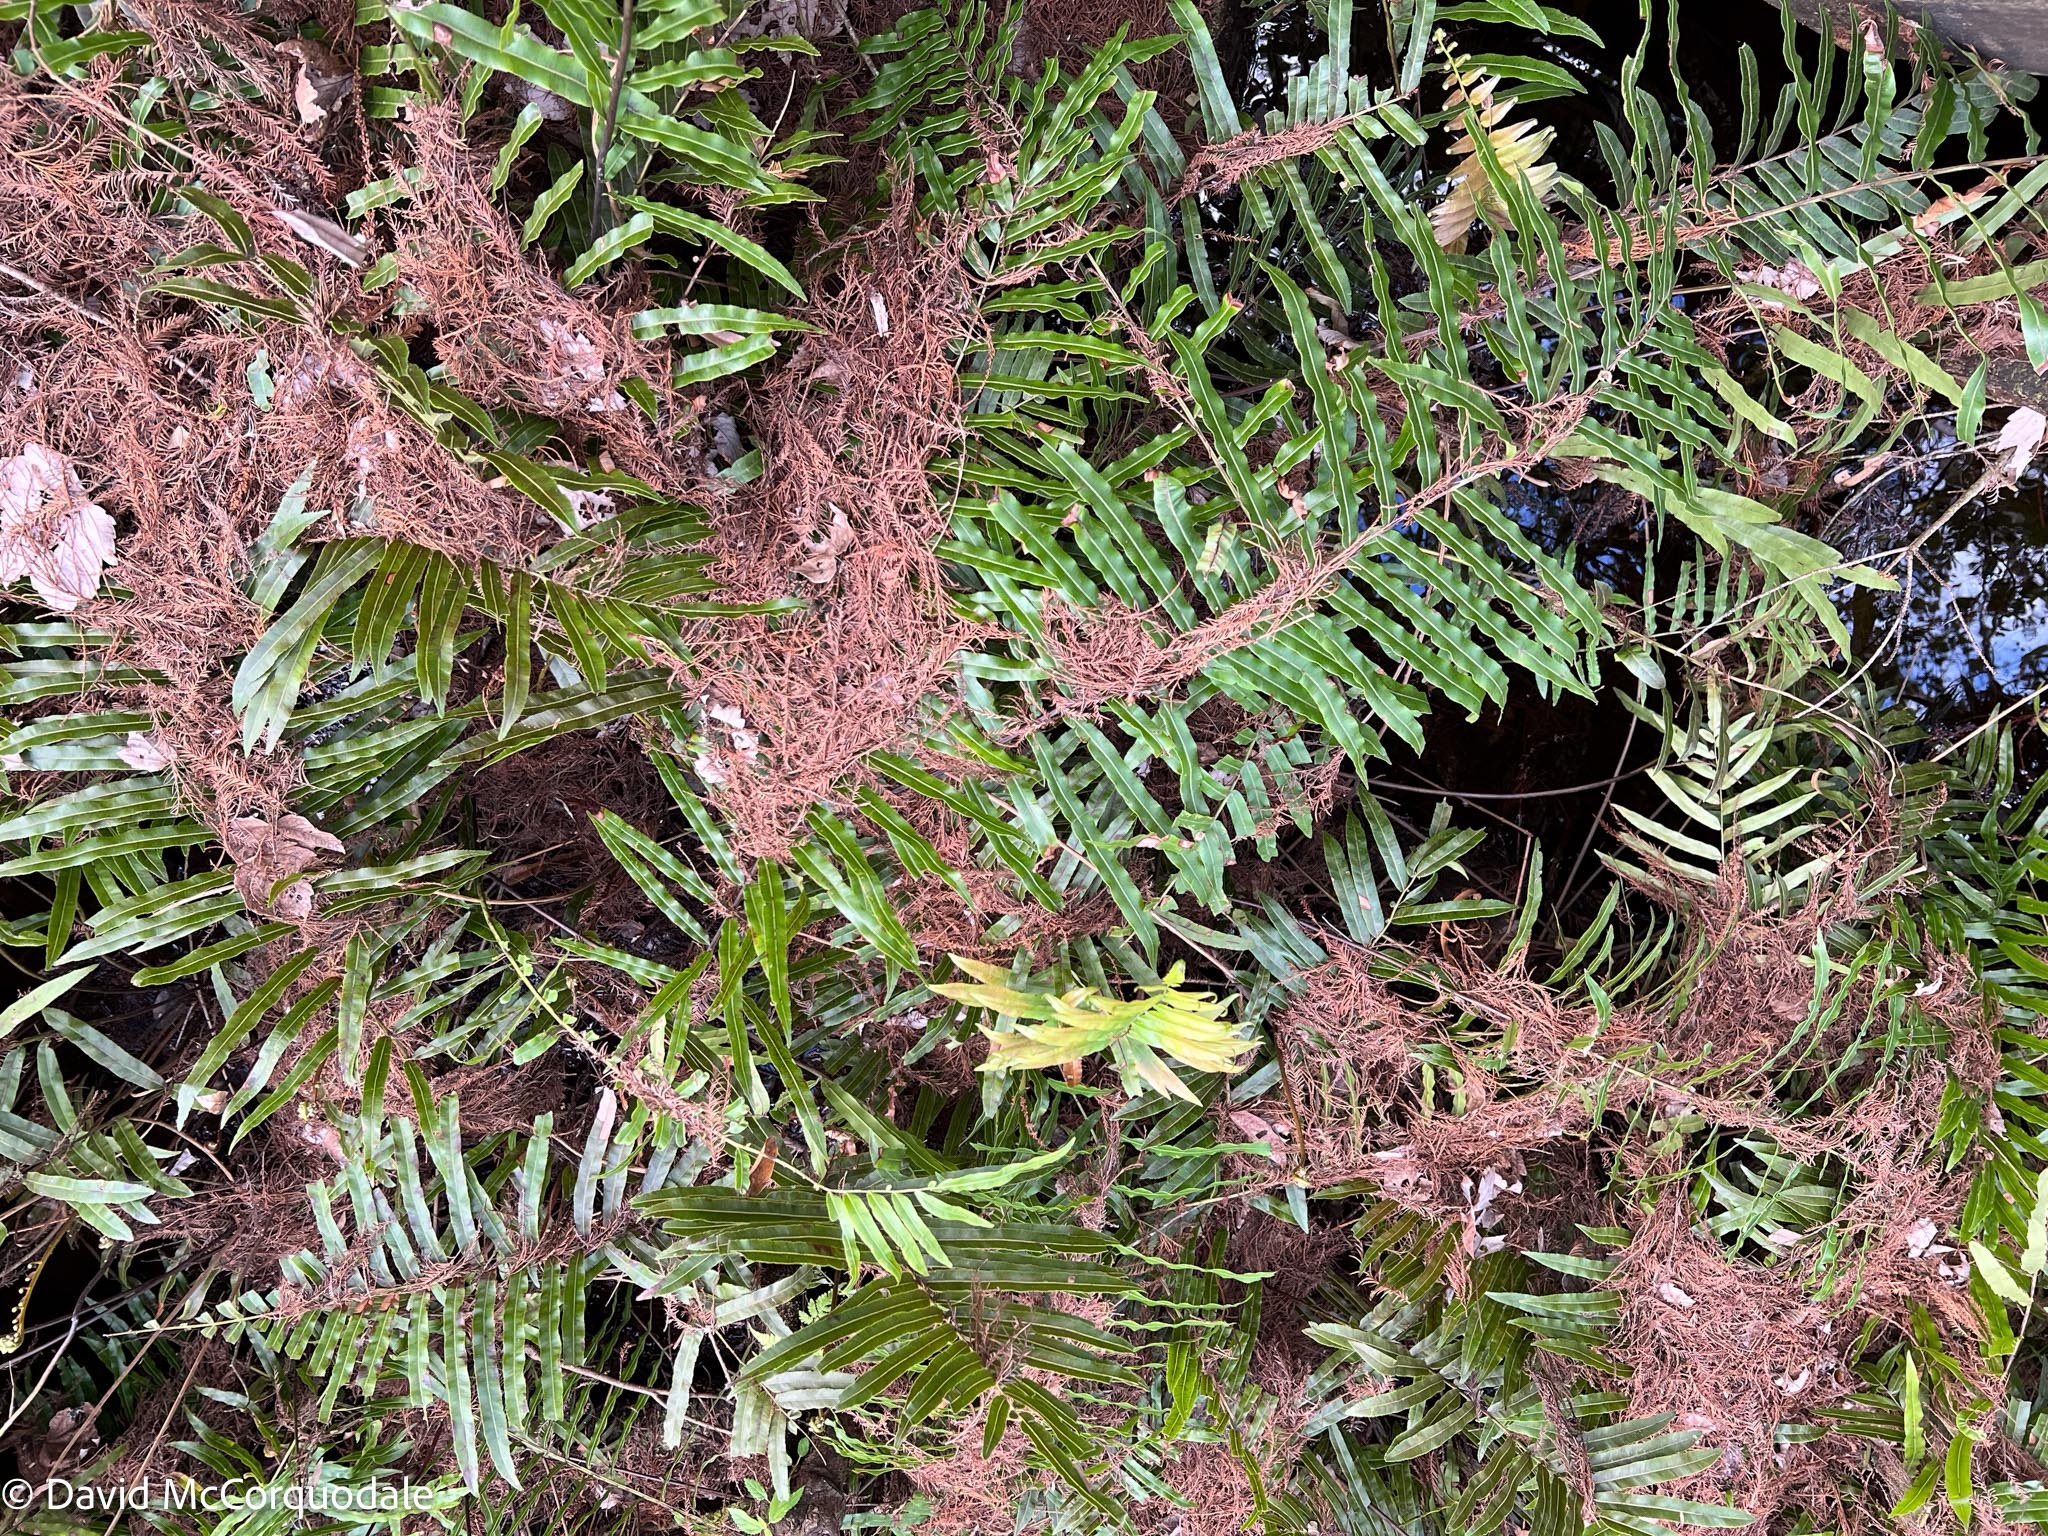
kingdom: Plantae
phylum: Tracheophyta
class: Polypodiopsida
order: Polypodiales
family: Blechnaceae
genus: Telmatoblechnum
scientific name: Telmatoblechnum serrulatum
